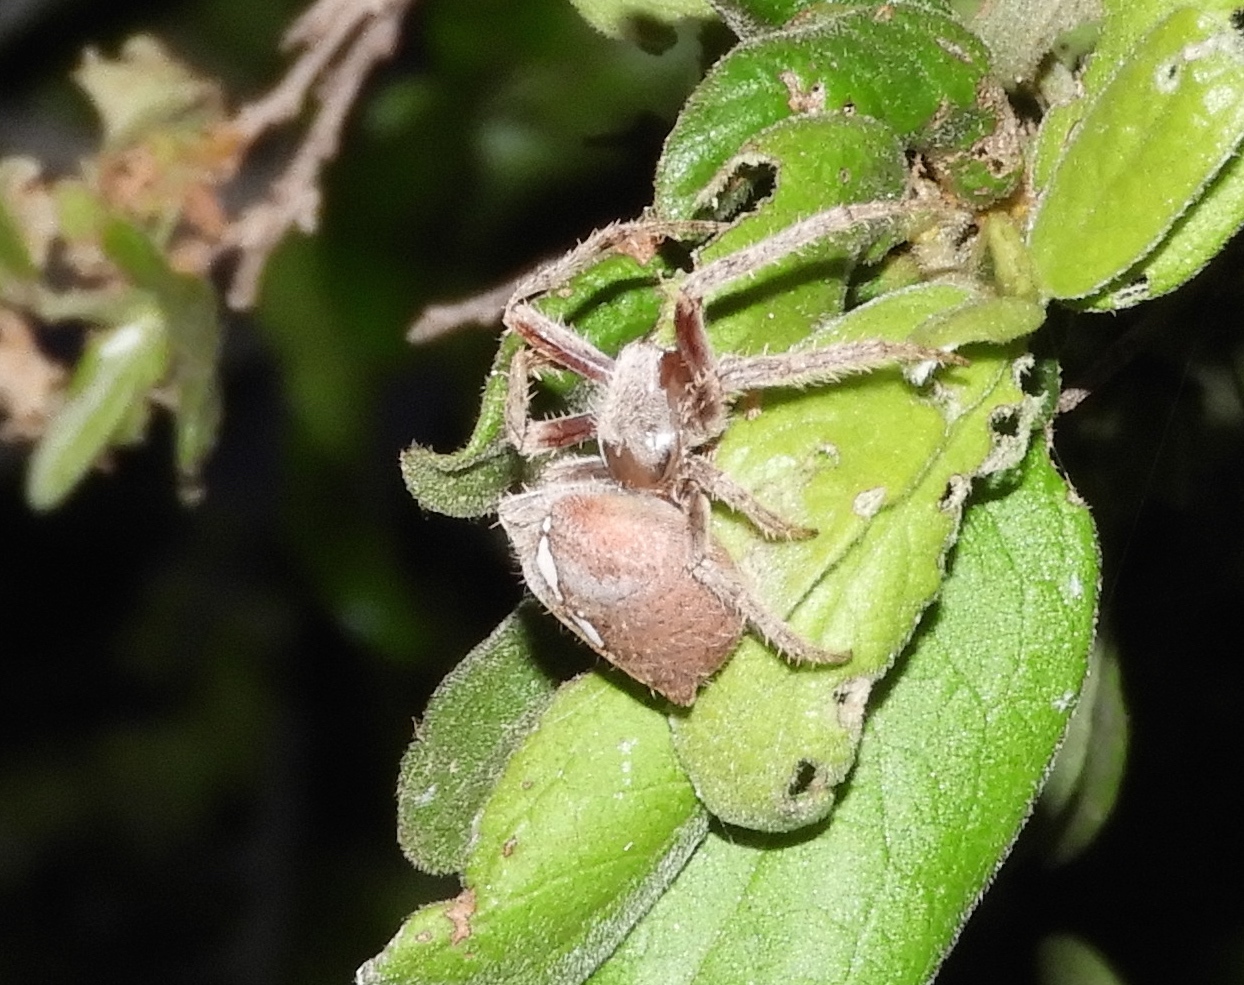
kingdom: Animalia
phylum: Arthropoda
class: Arachnida
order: Araneae
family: Araneidae
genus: Eriophora
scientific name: Eriophora edax
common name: Orb weavers
